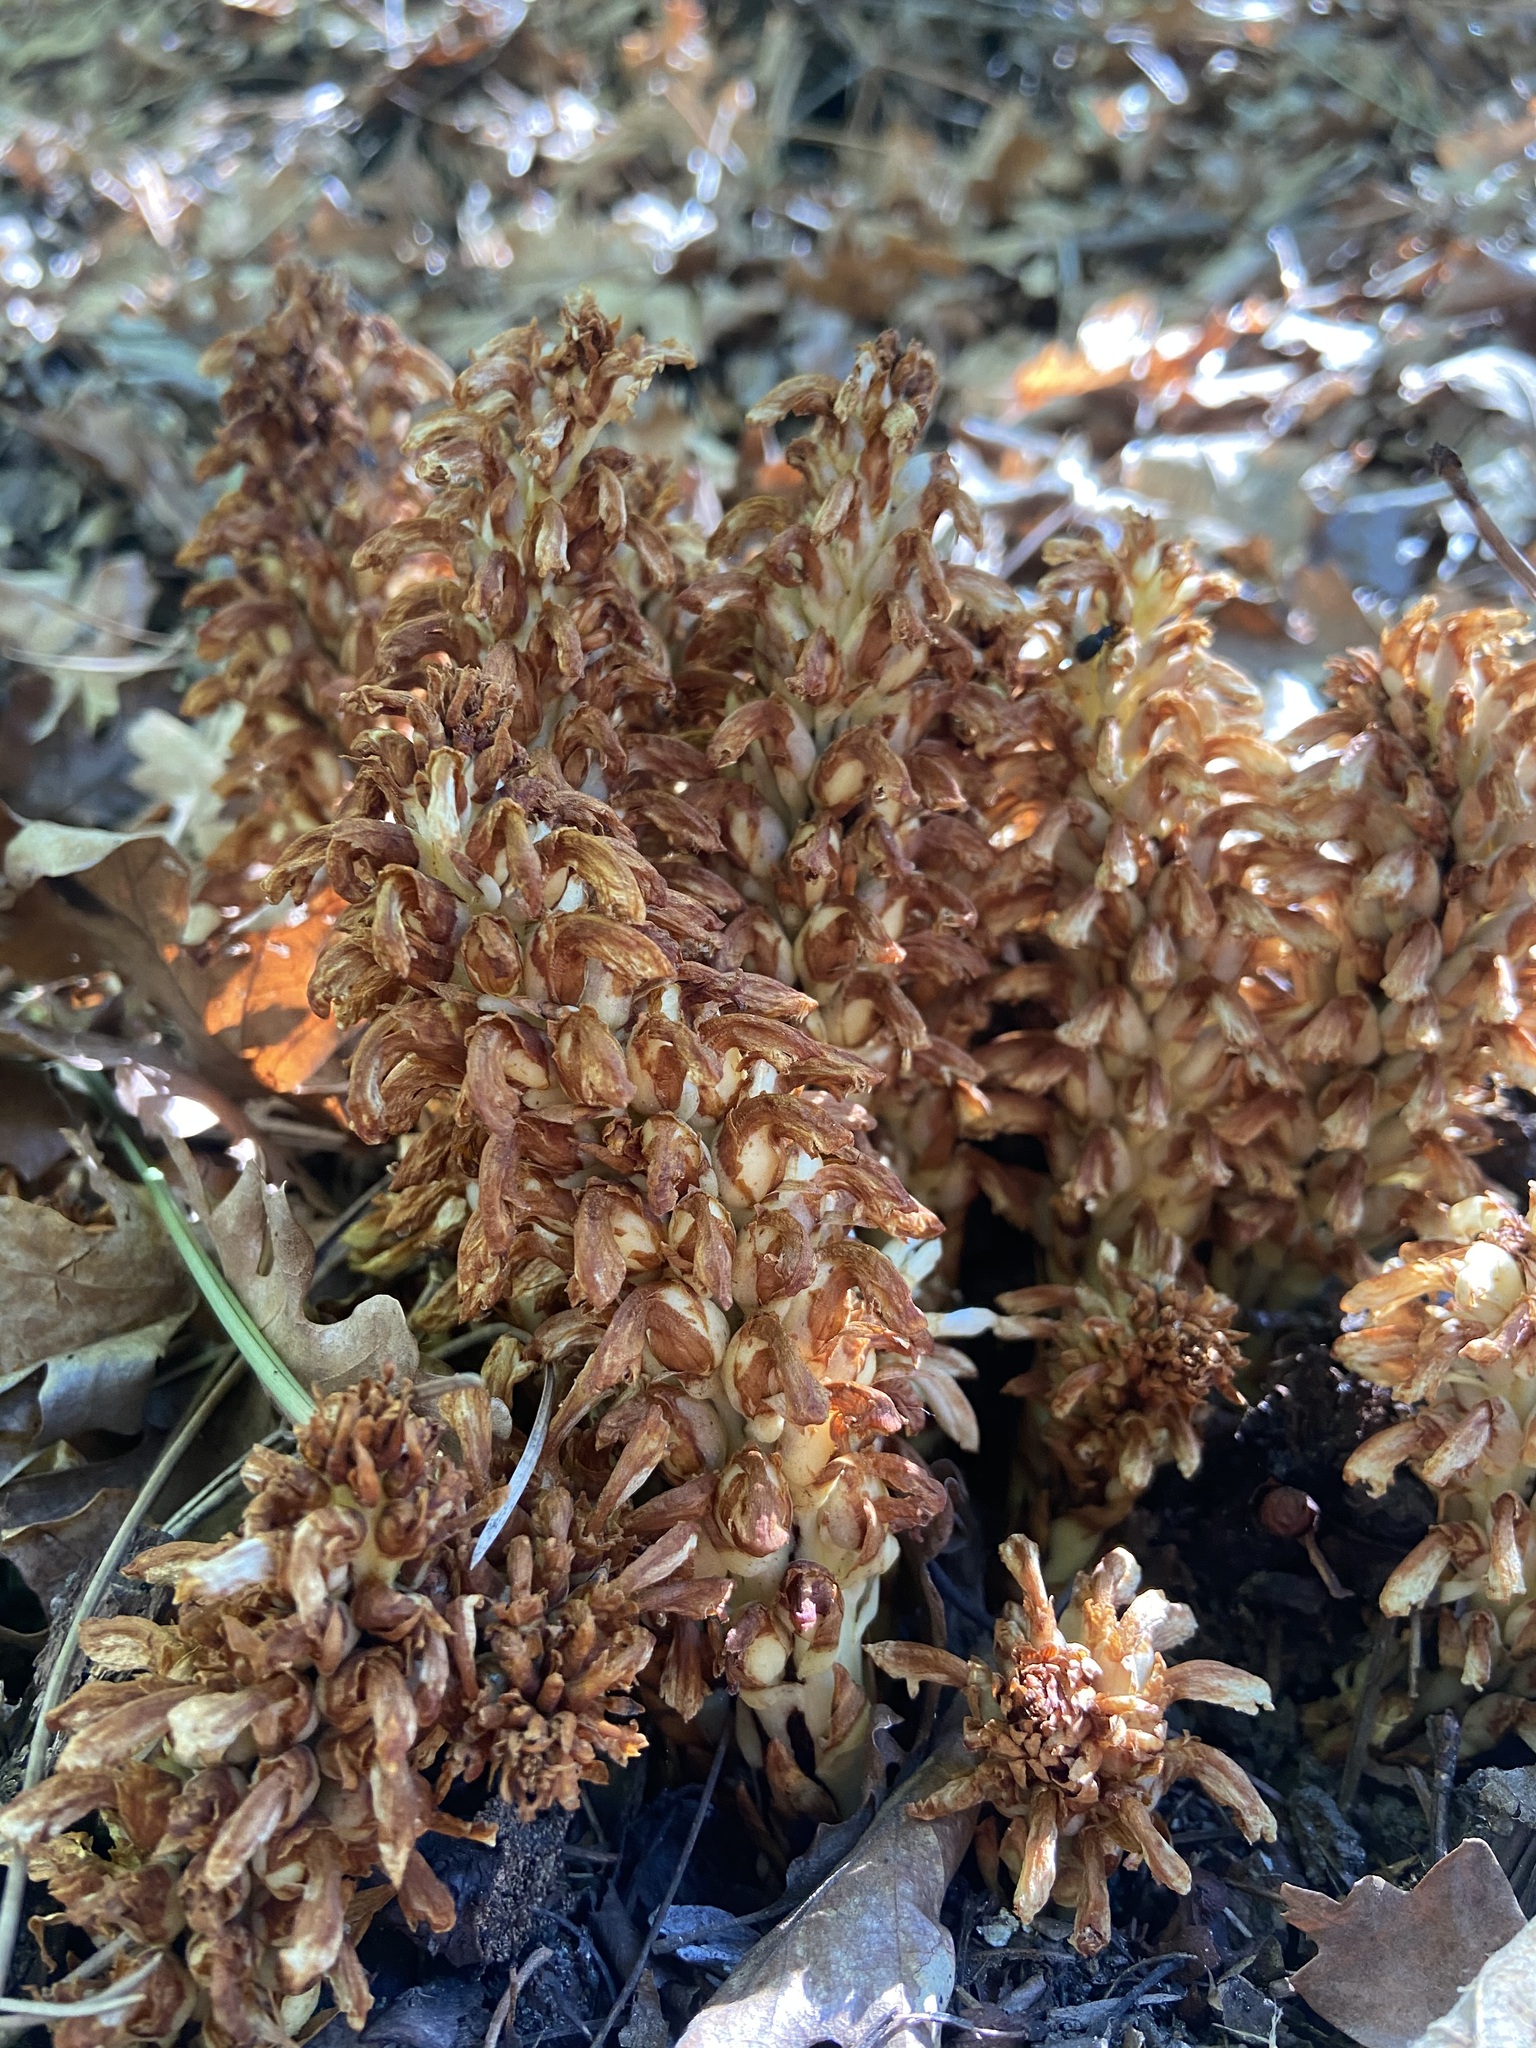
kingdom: Plantae
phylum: Tracheophyta
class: Magnoliopsida
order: Lamiales
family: Orobanchaceae
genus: Conopholis
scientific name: Conopholis alpina
